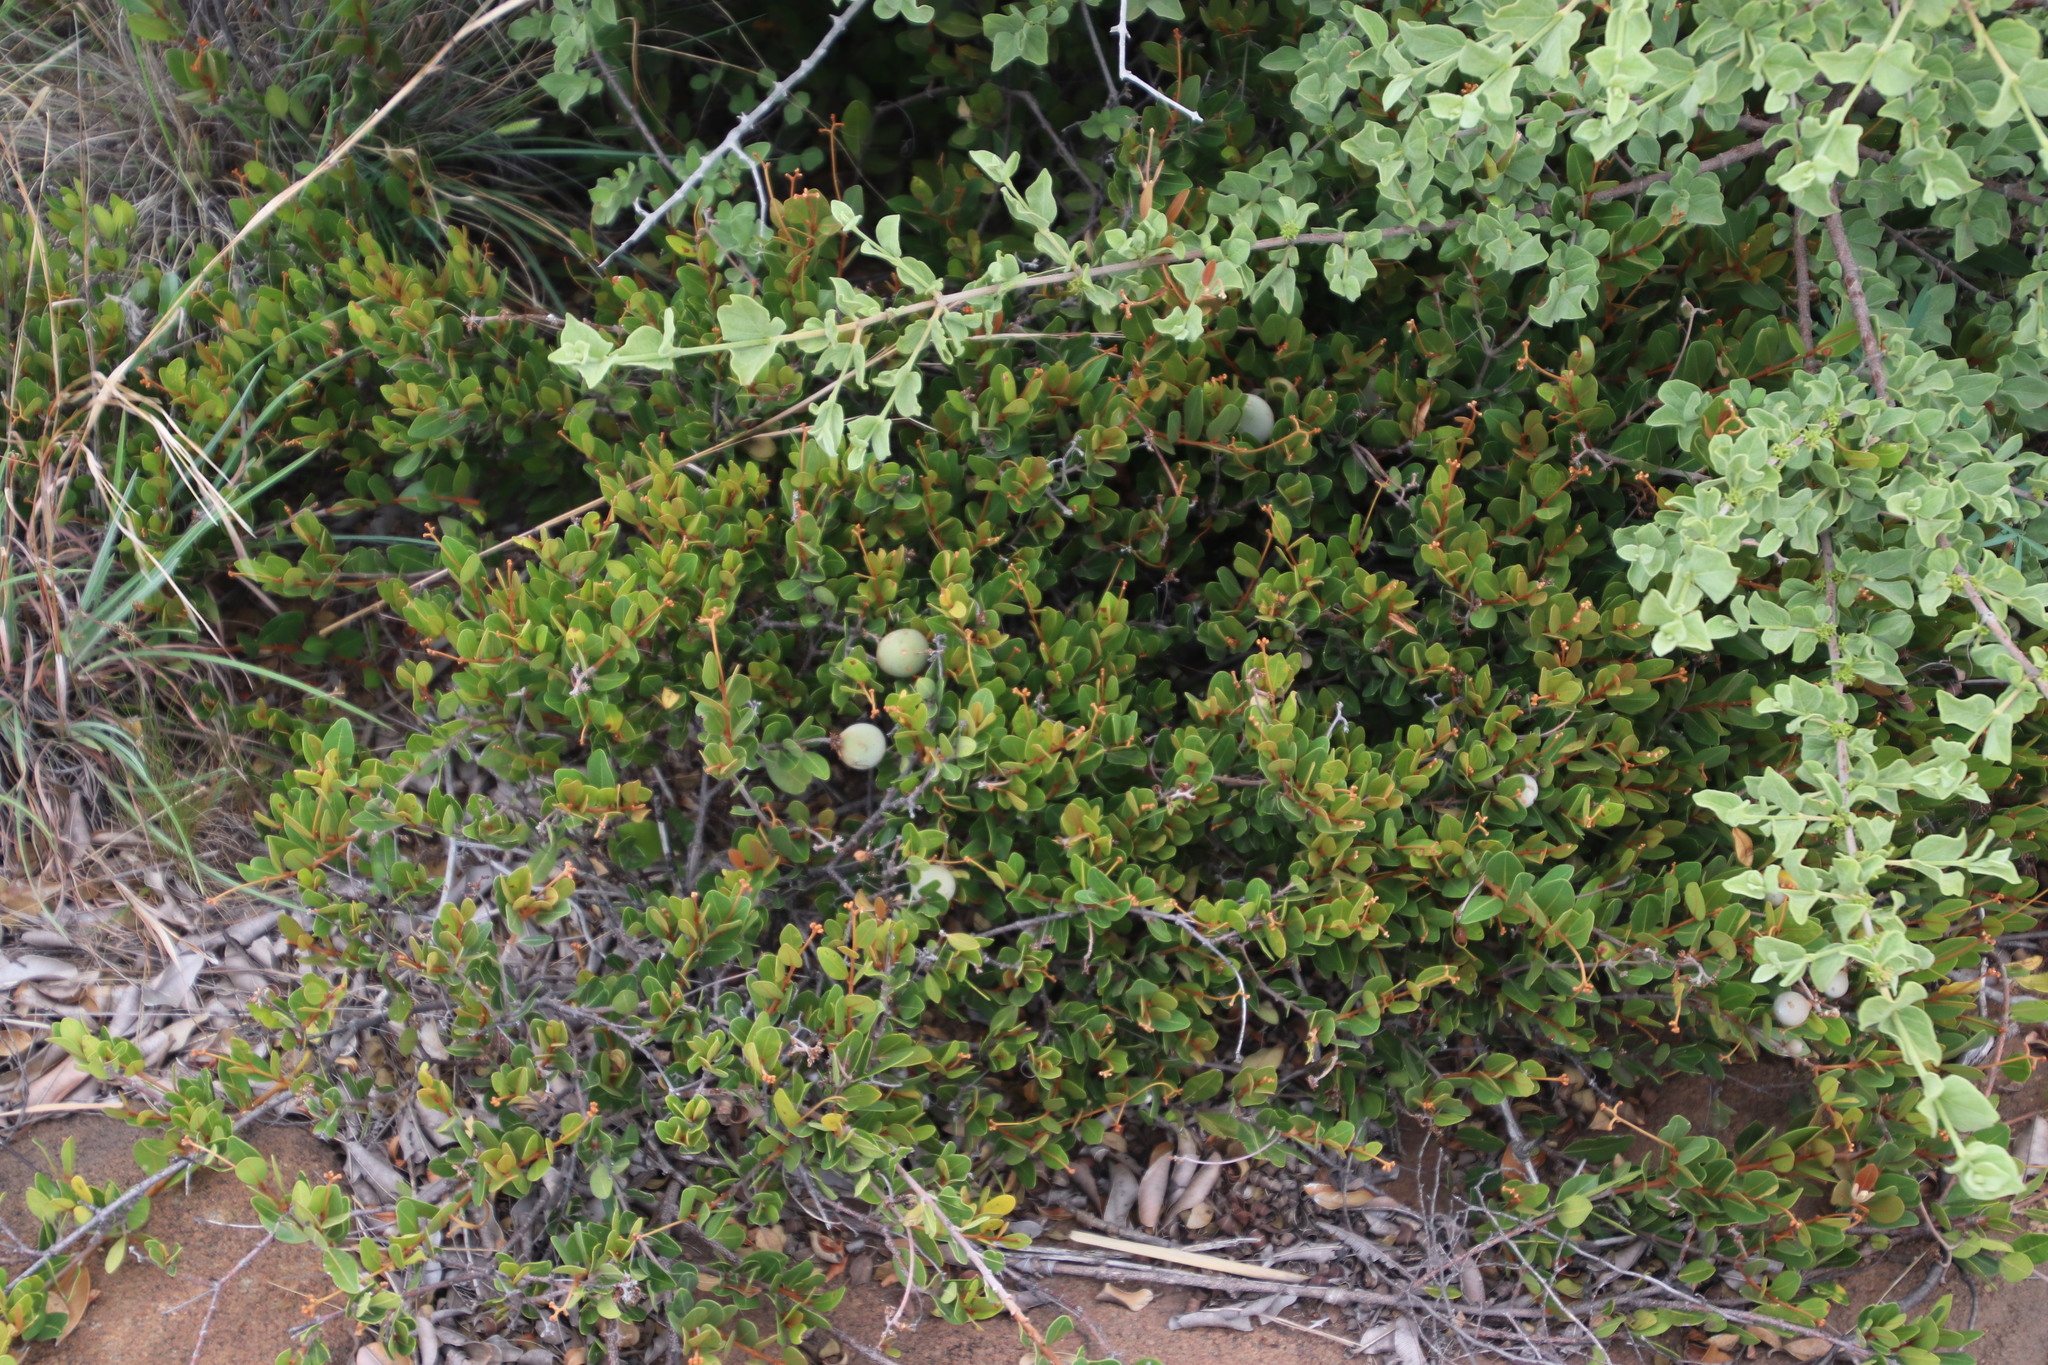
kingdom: Plantae
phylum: Tracheophyta
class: Magnoliopsida
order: Gentianales
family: Apocynaceae
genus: Ancylobothrys
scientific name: Ancylobothrys capensis
